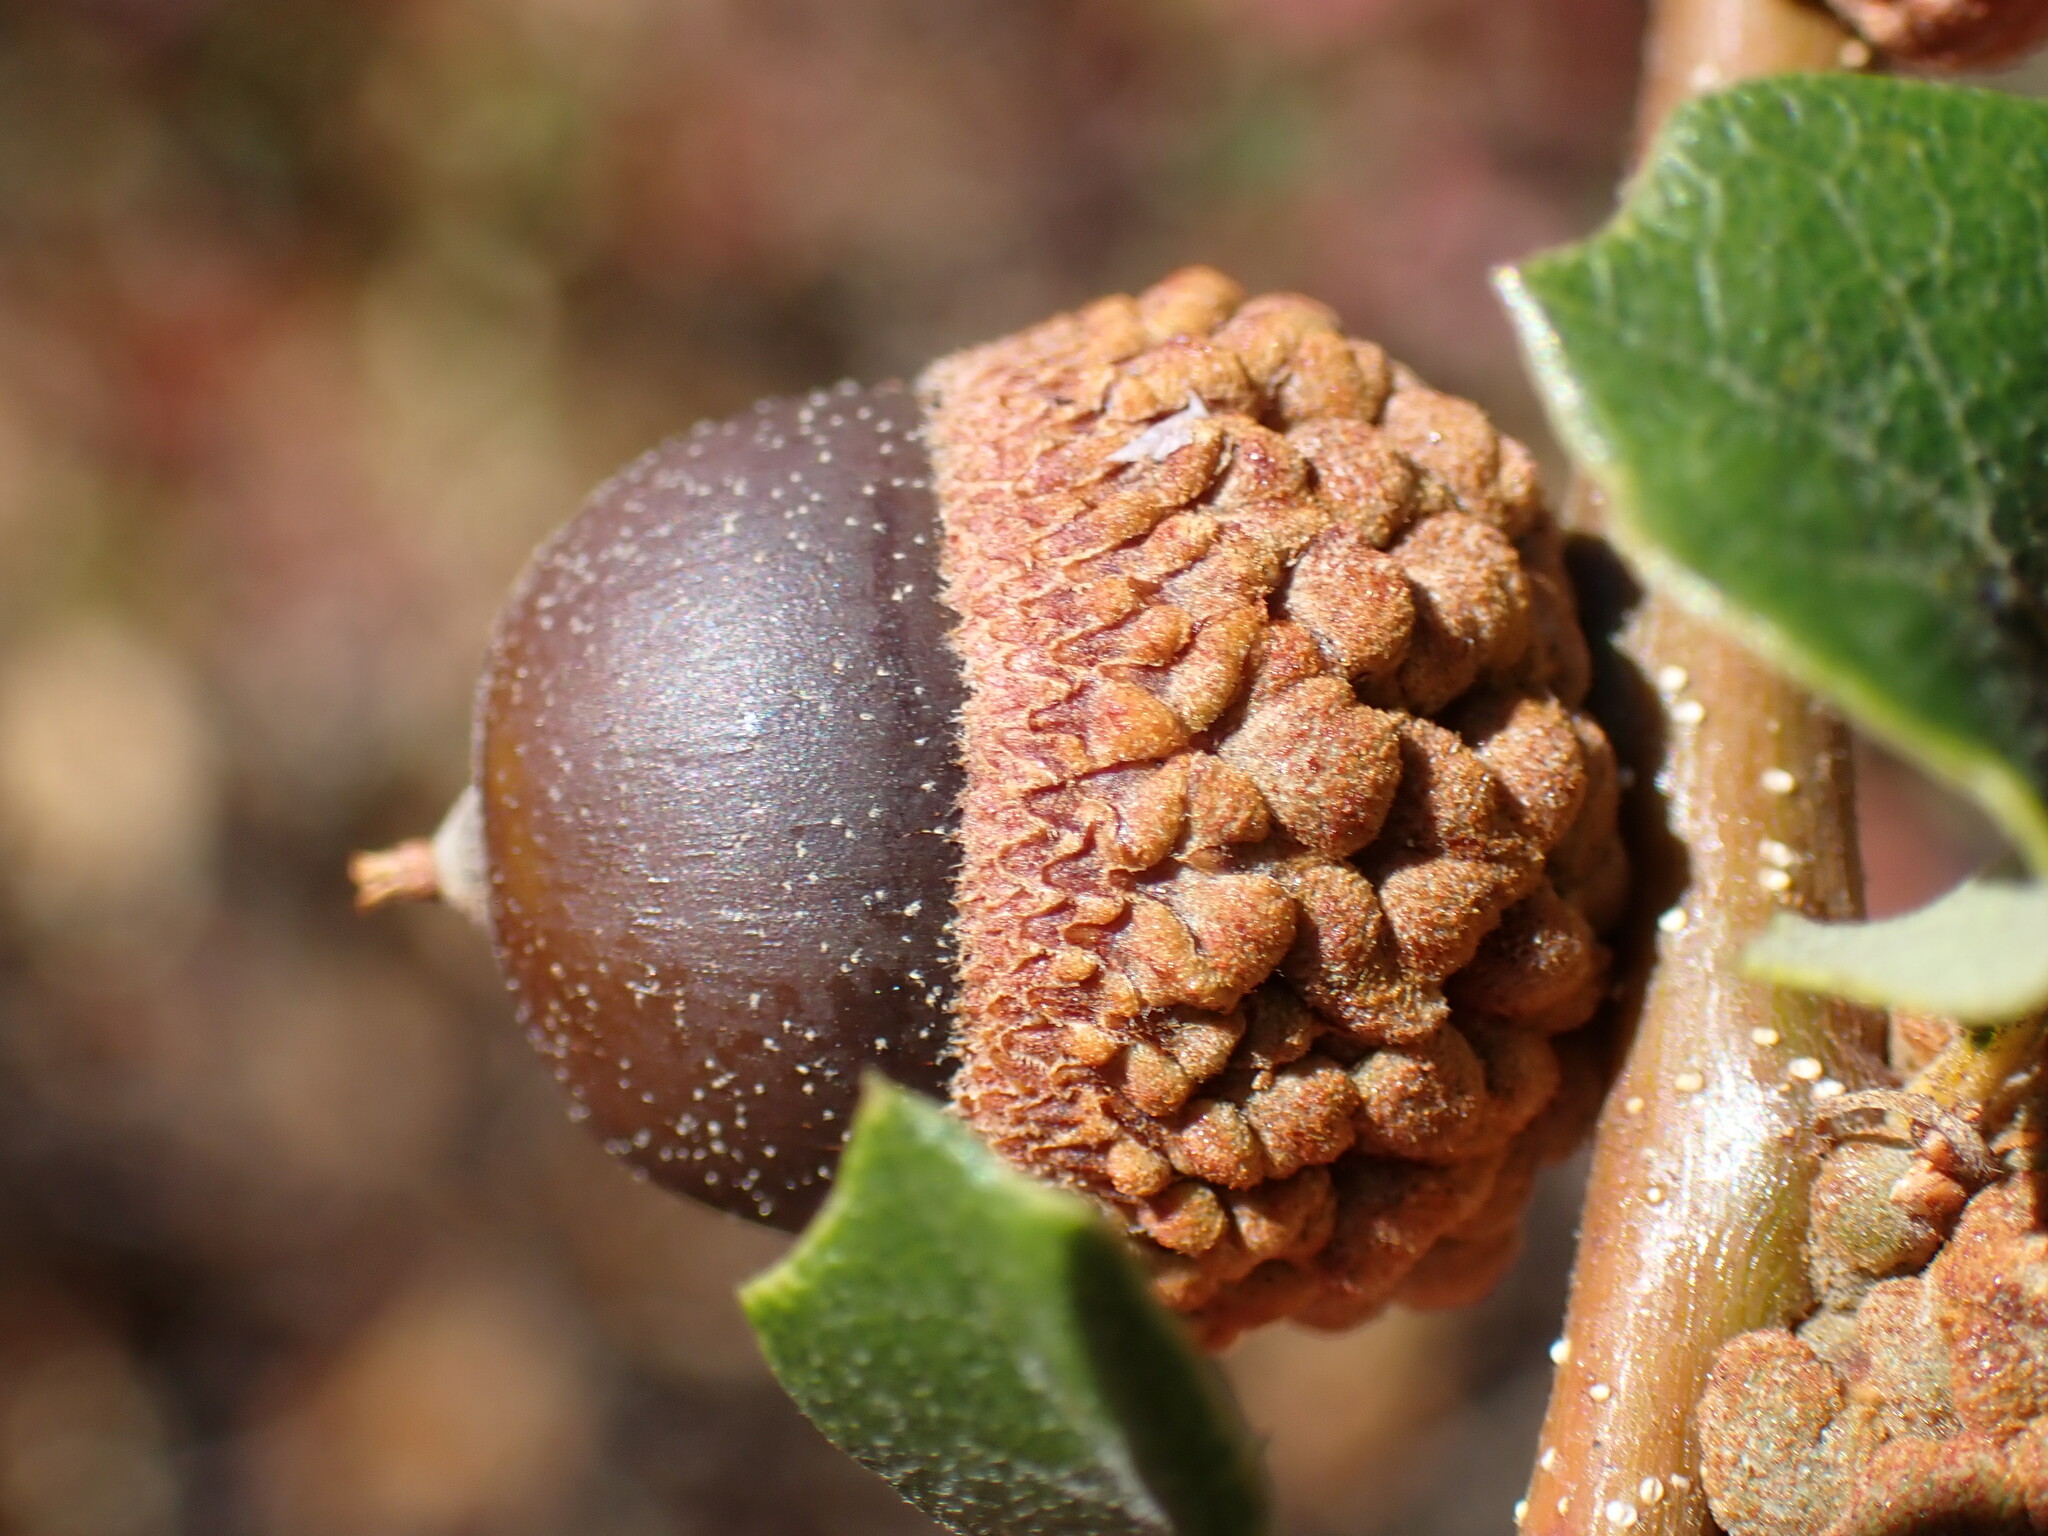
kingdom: Plantae
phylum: Tracheophyta
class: Magnoliopsida
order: Fagales
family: Fagaceae
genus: Quercus
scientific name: Quercus berberidifolia
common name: California scrub oak
